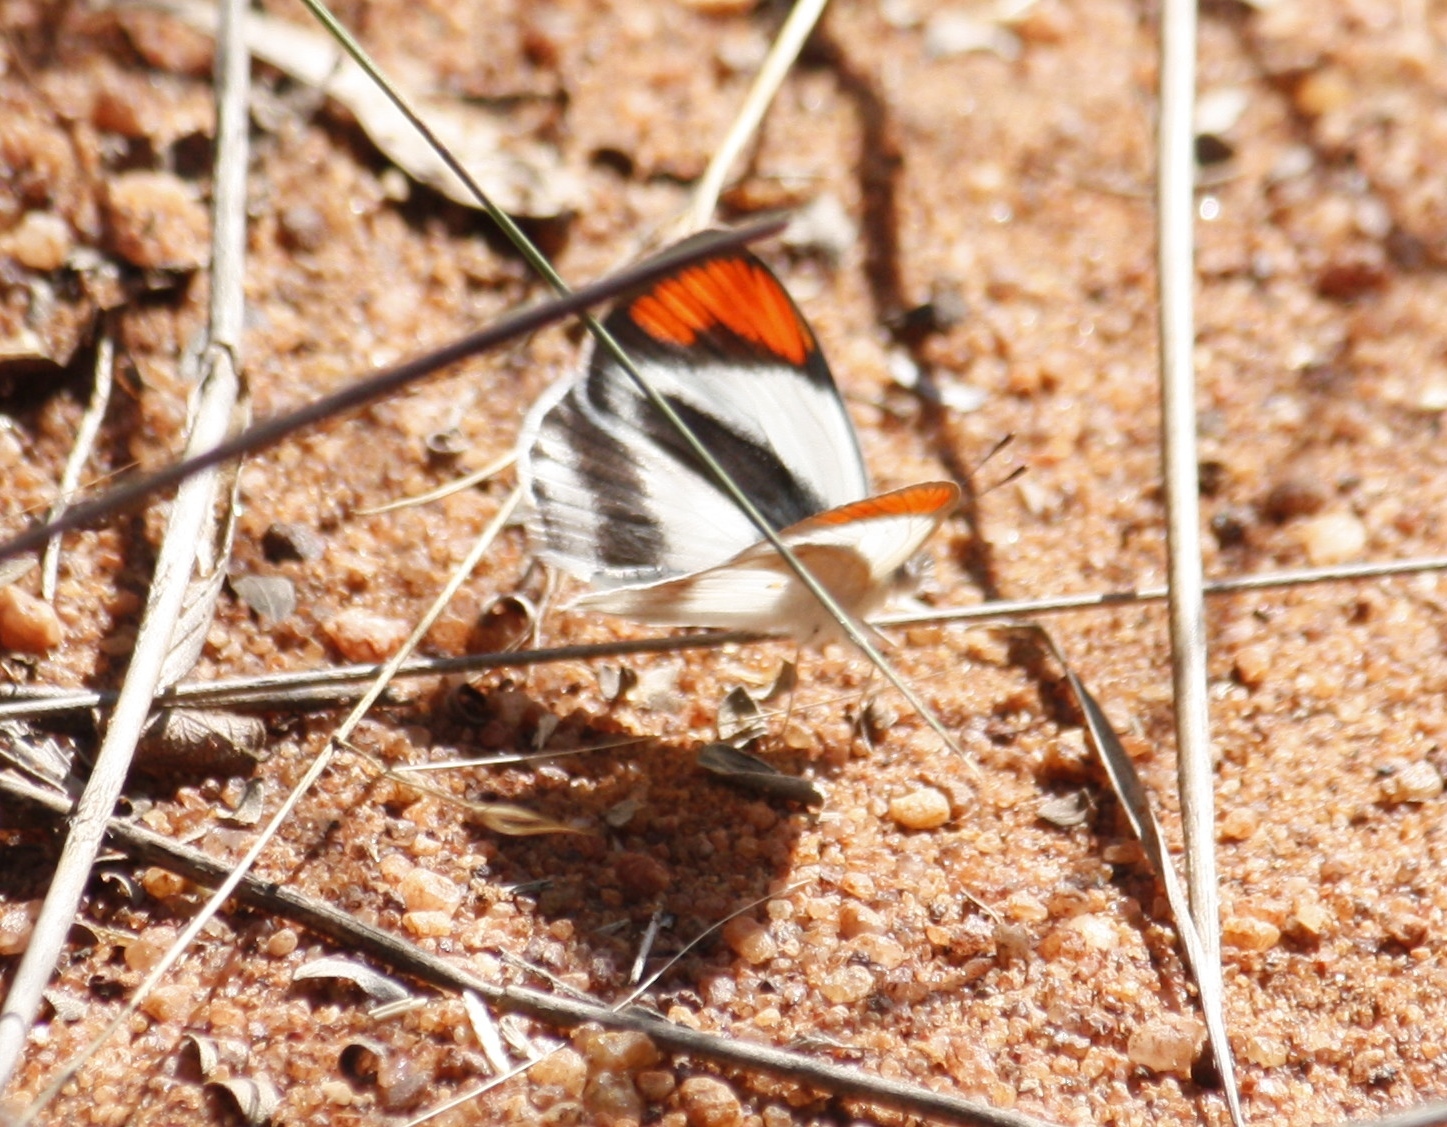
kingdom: Animalia
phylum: Arthropoda
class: Insecta
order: Lepidoptera
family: Pieridae
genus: Colotis
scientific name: Colotis euippe
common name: Round-winged orange tip
